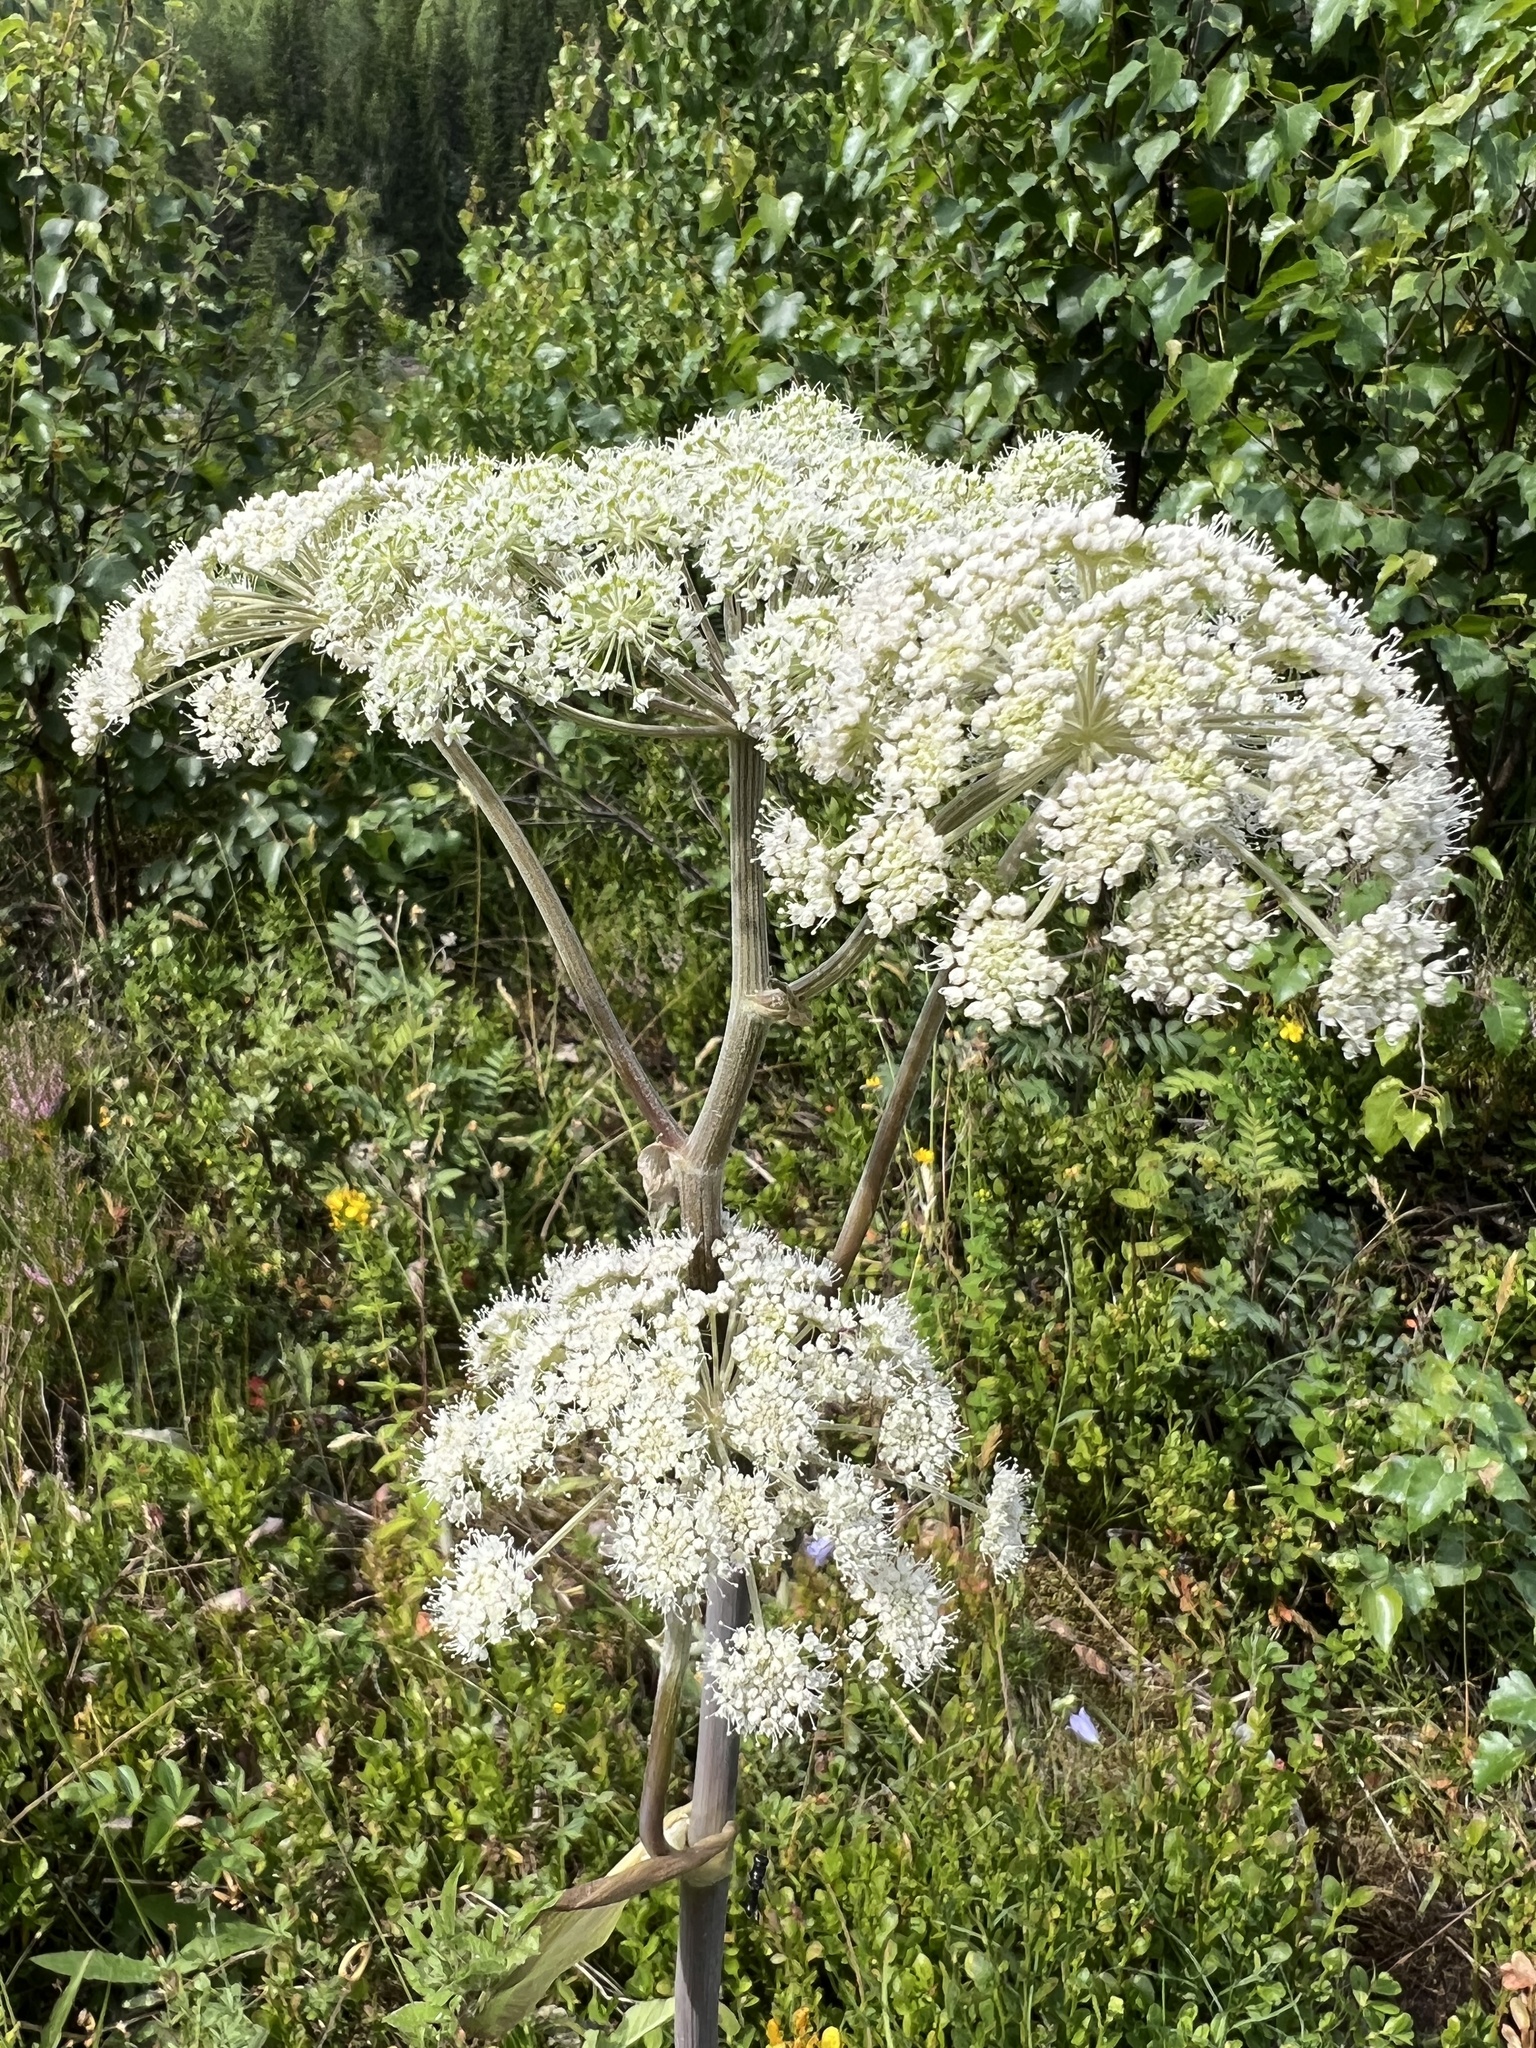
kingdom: Plantae
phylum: Tracheophyta
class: Magnoliopsida
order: Apiales
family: Apiaceae
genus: Angelica
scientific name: Angelica sylvestris
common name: Wild angelica
